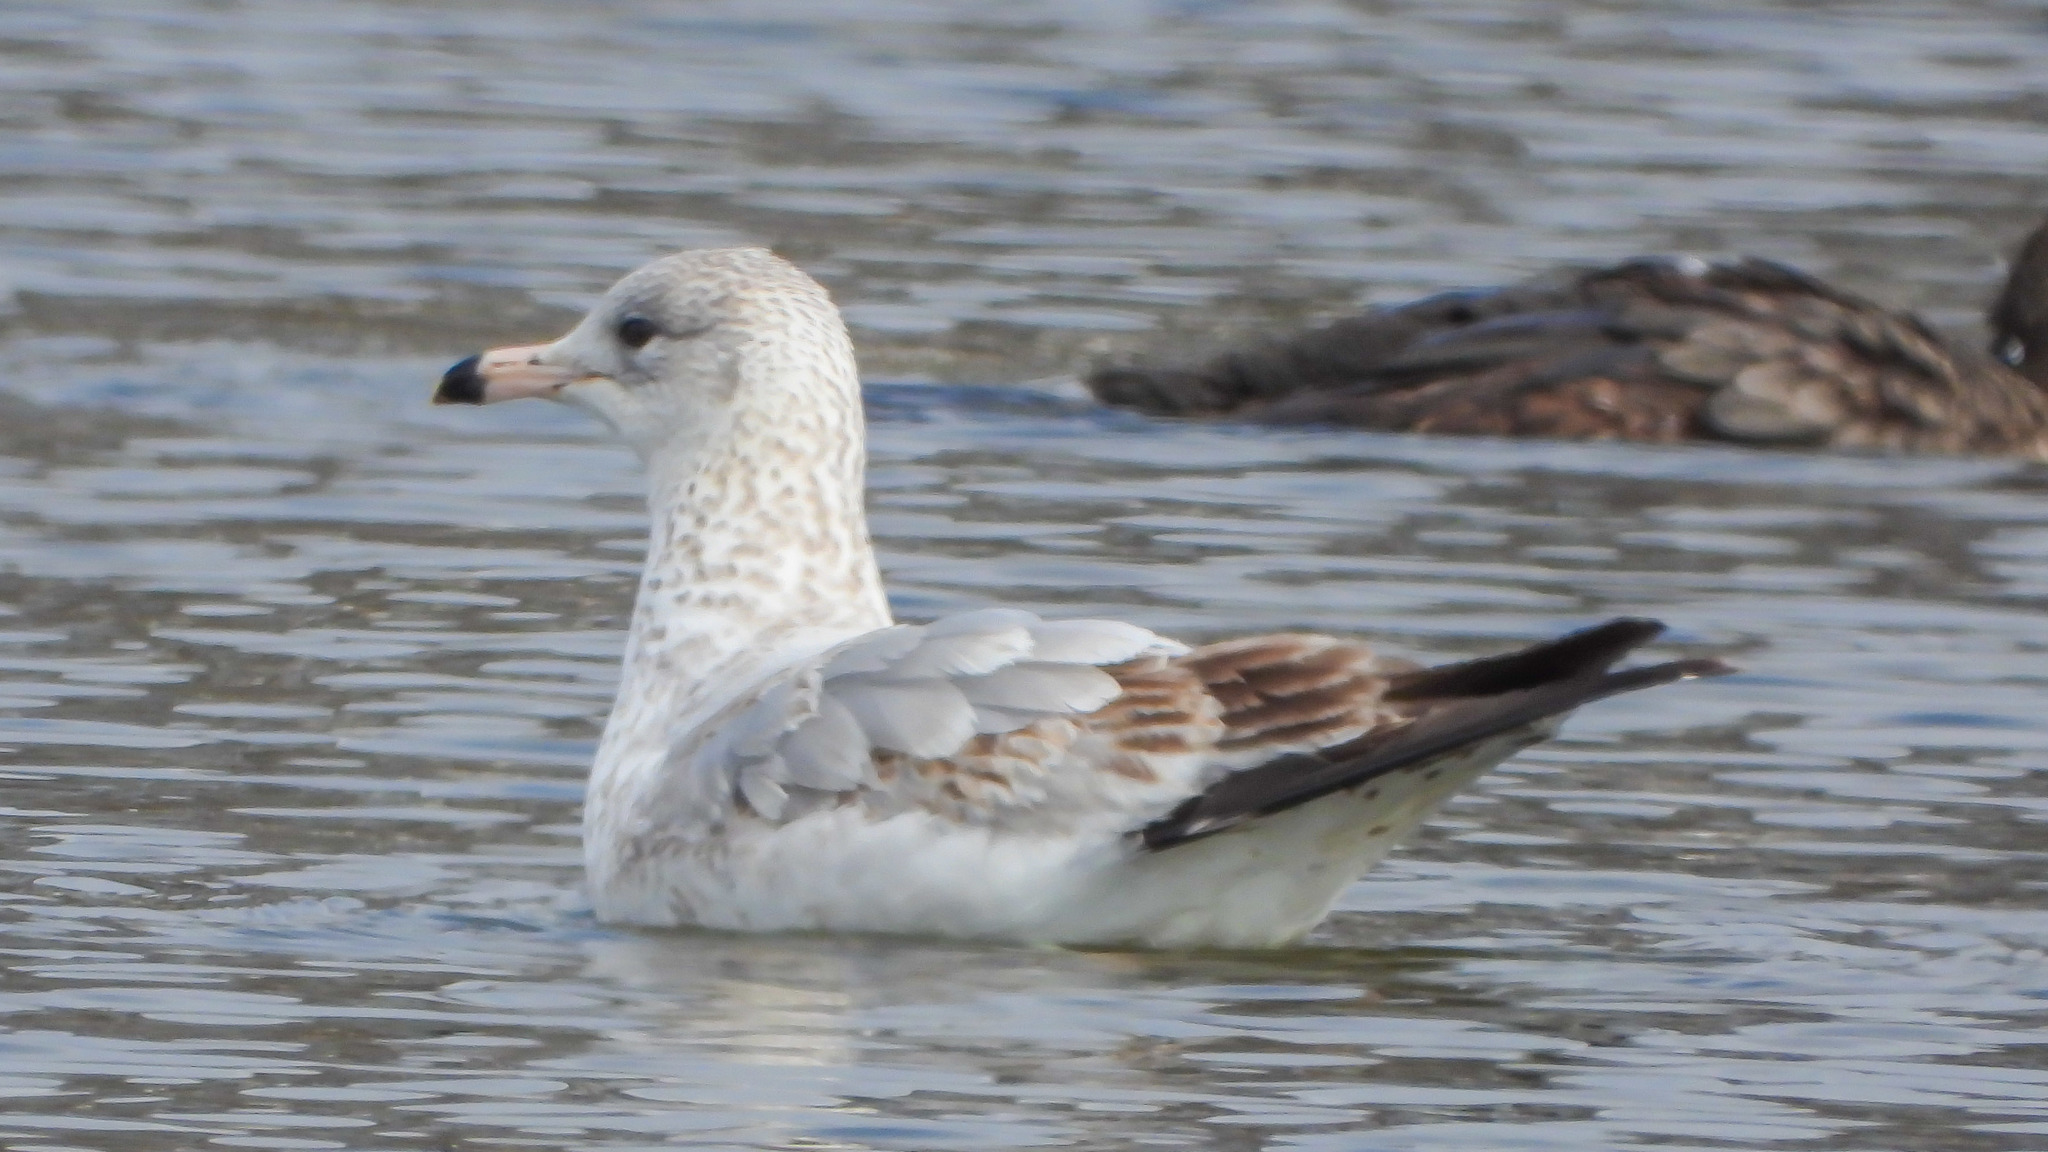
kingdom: Animalia
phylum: Chordata
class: Aves
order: Charadriiformes
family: Laridae
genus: Larus
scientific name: Larus delawarensis
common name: Ring-billed gull
